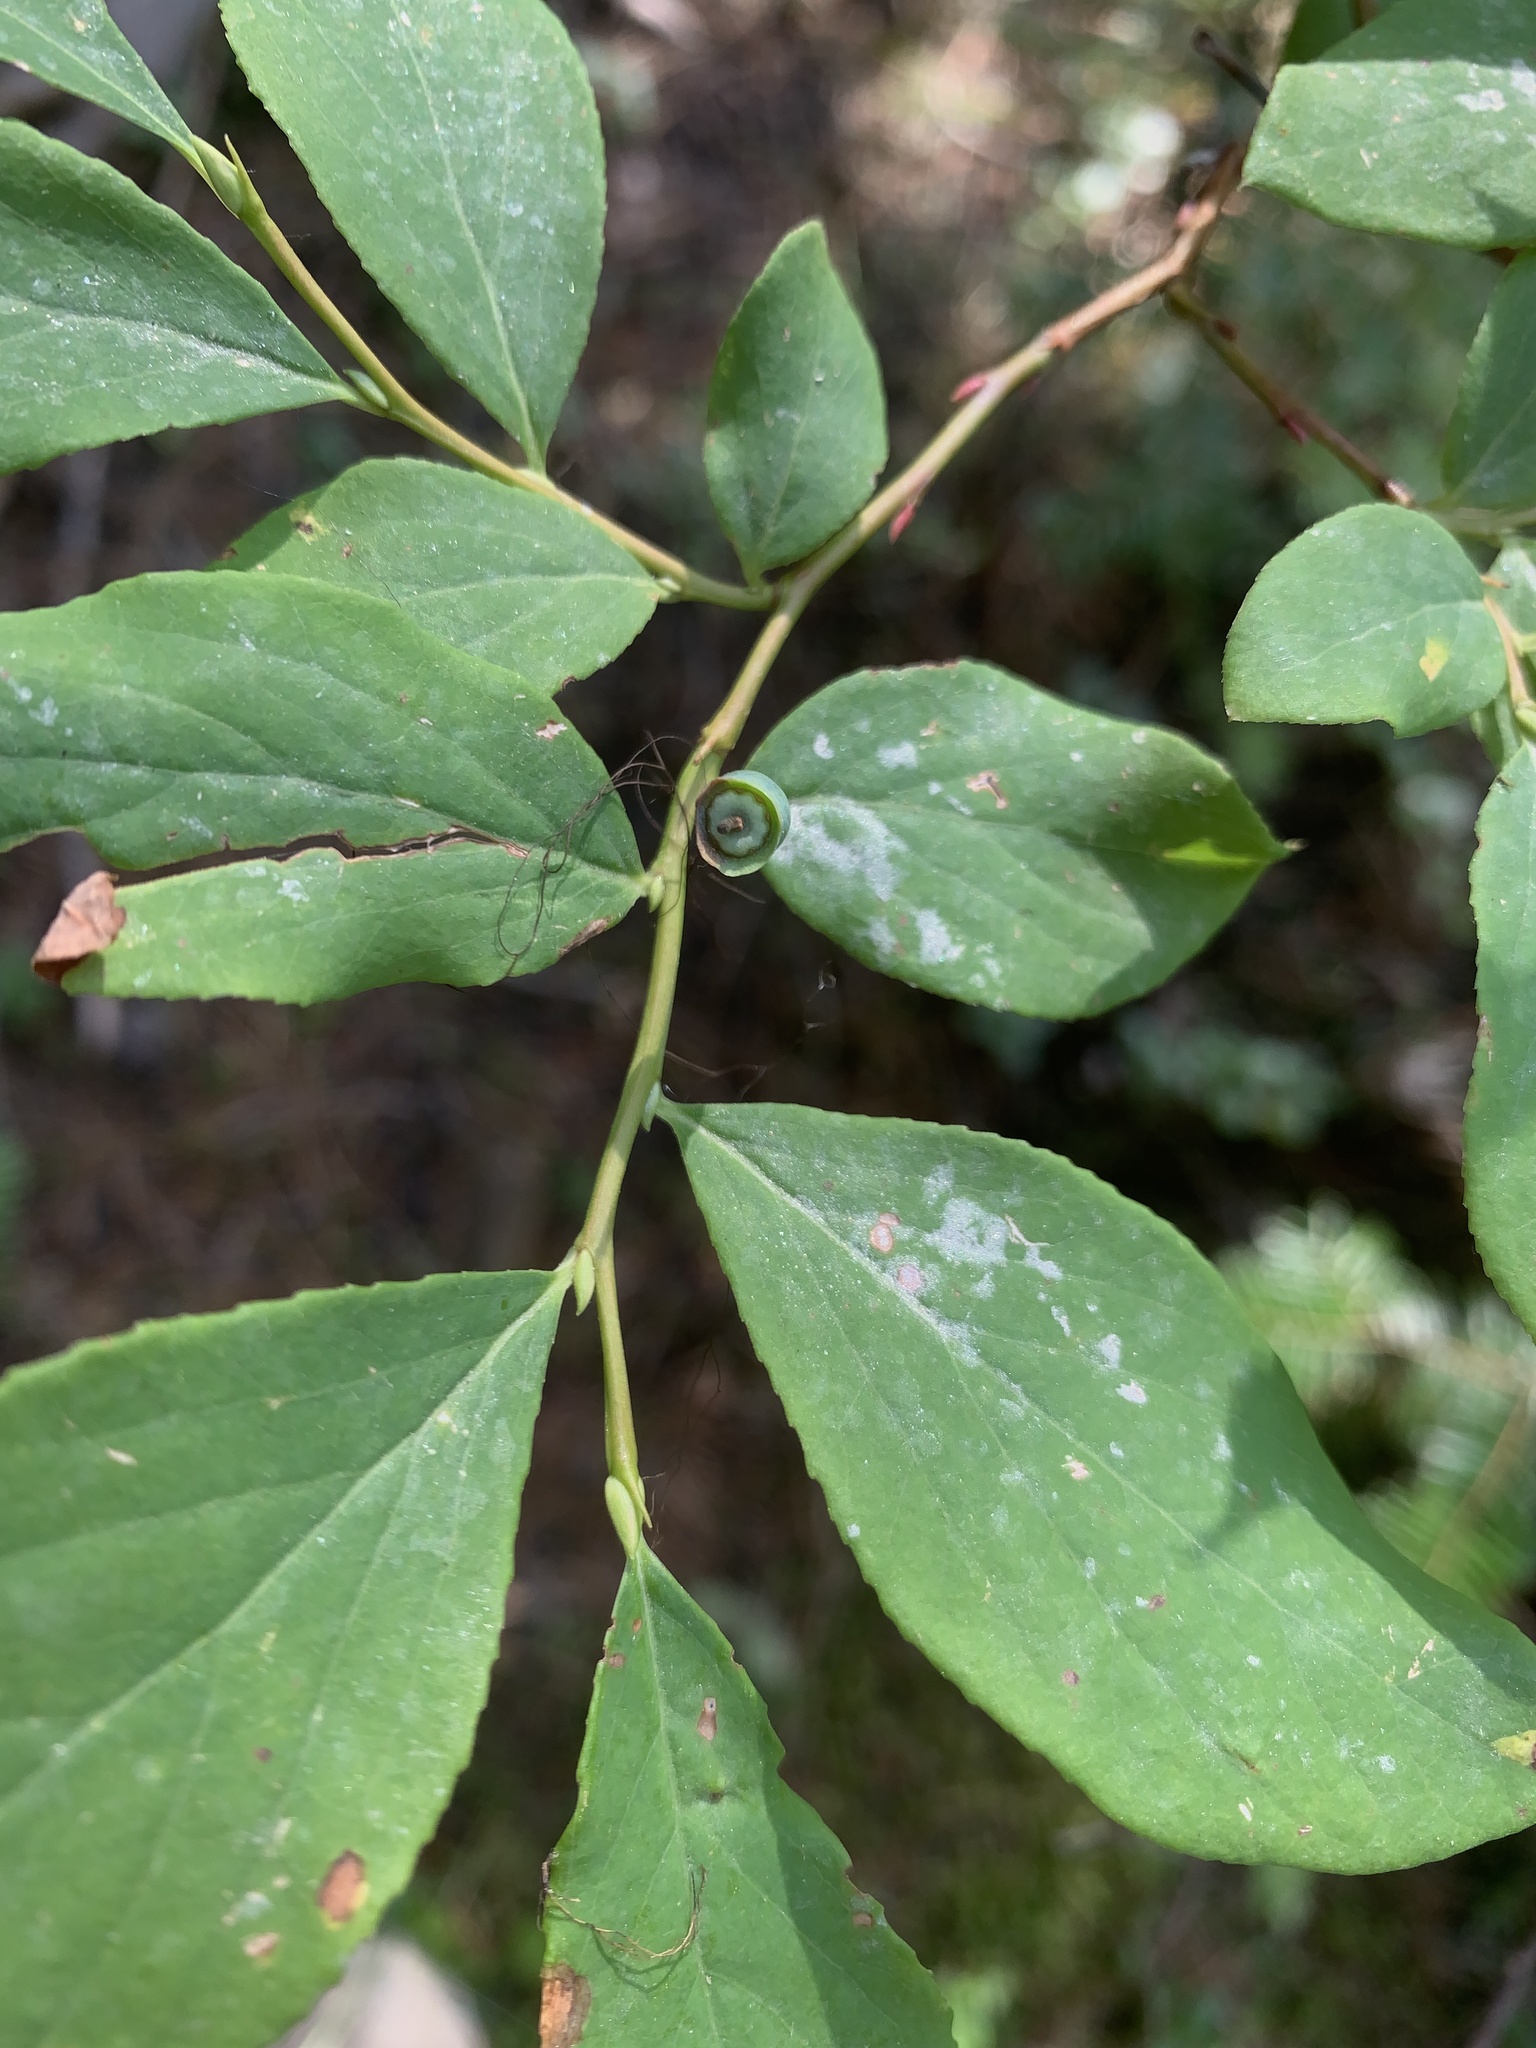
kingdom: Plantae
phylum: Tracheophyta
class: Magnoliopsida
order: Ericales
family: Ericaceae
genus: Vaccinium
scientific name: Vaccinium membranaceum
